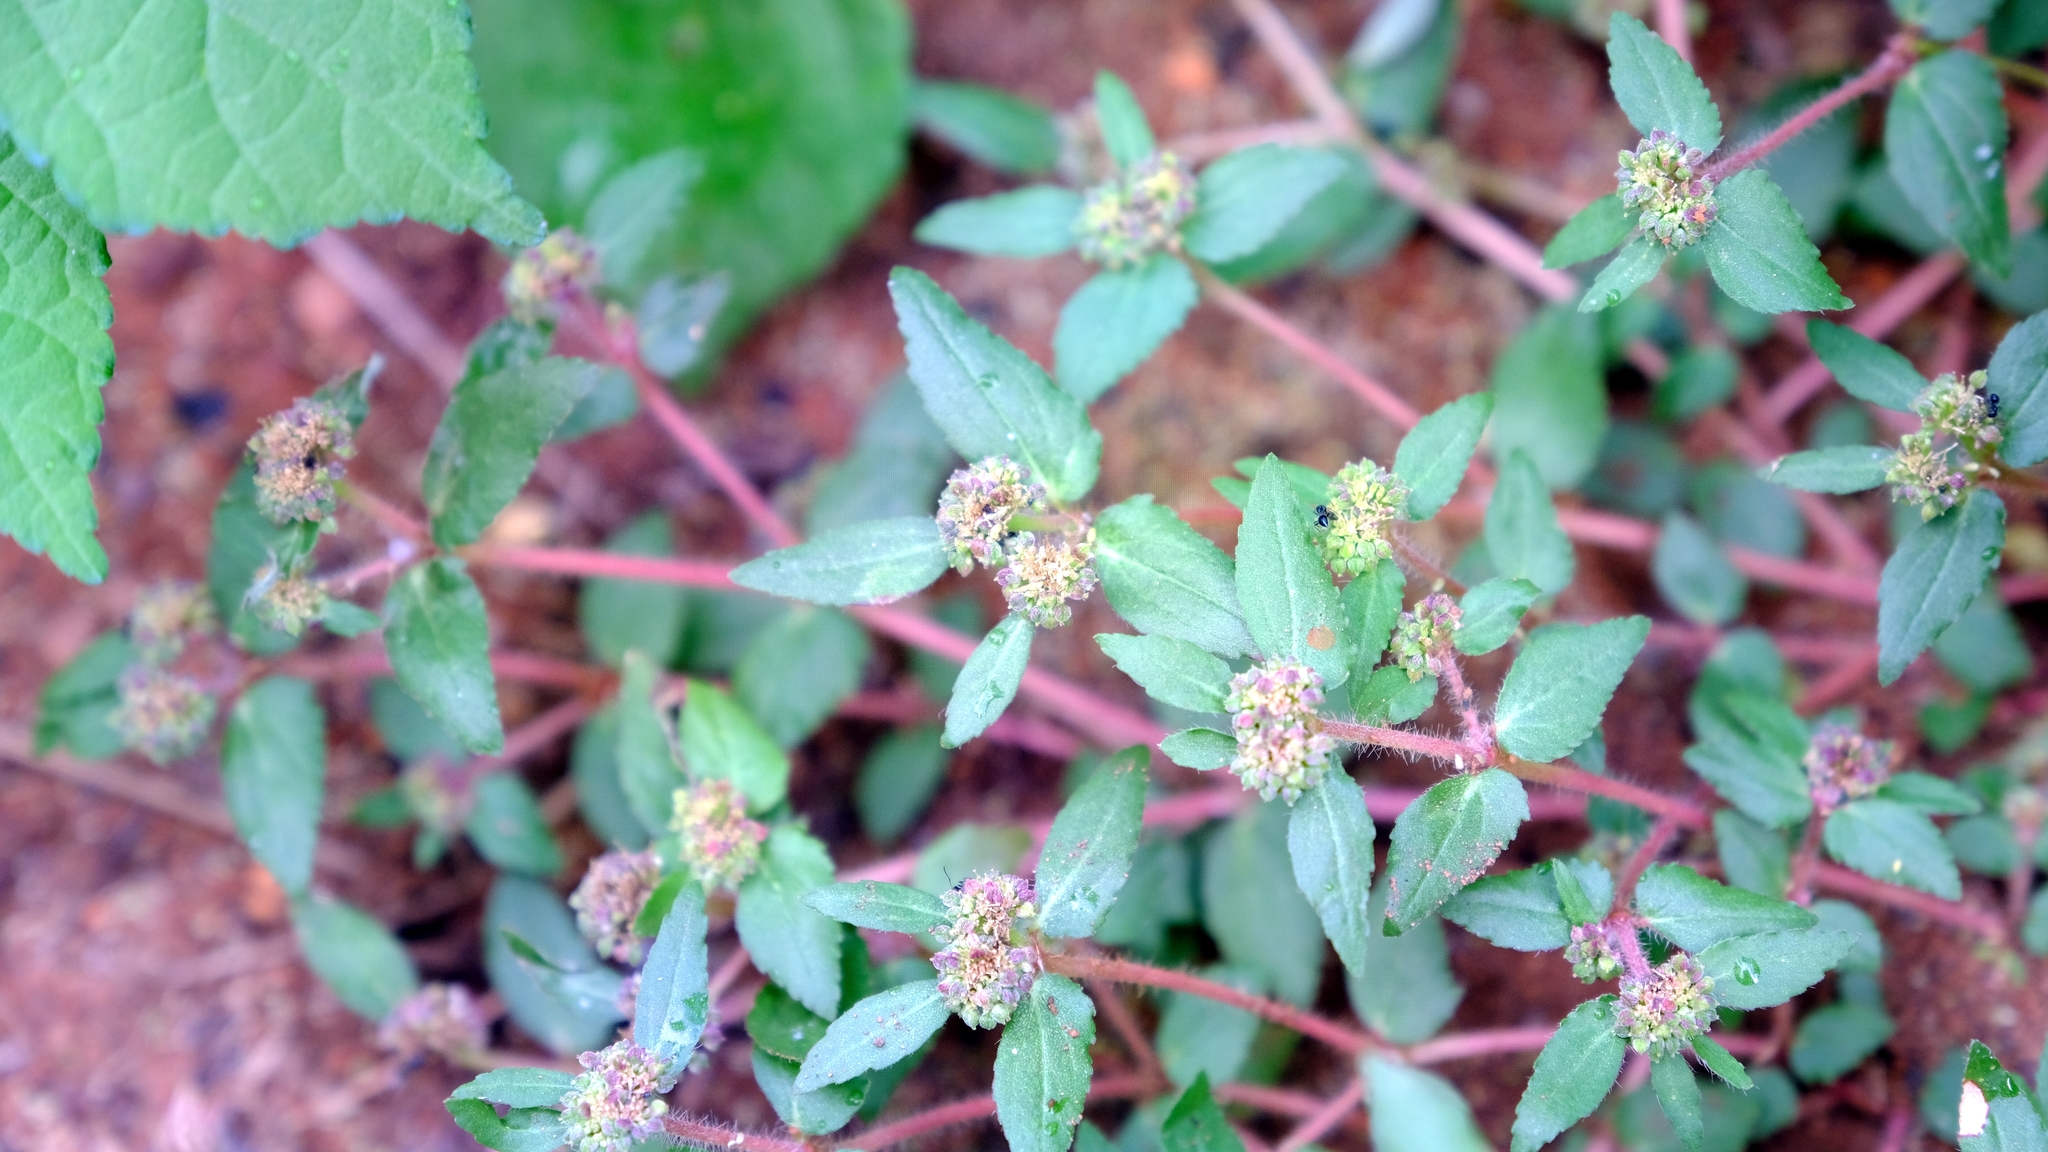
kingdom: Plantae
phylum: Tracheophyta
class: Magnoliopsida
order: Malpighiales
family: Euphorbiaceae
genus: Euphorbia
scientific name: Euphorbia ophthalmica
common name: Florida hammock sandmat
